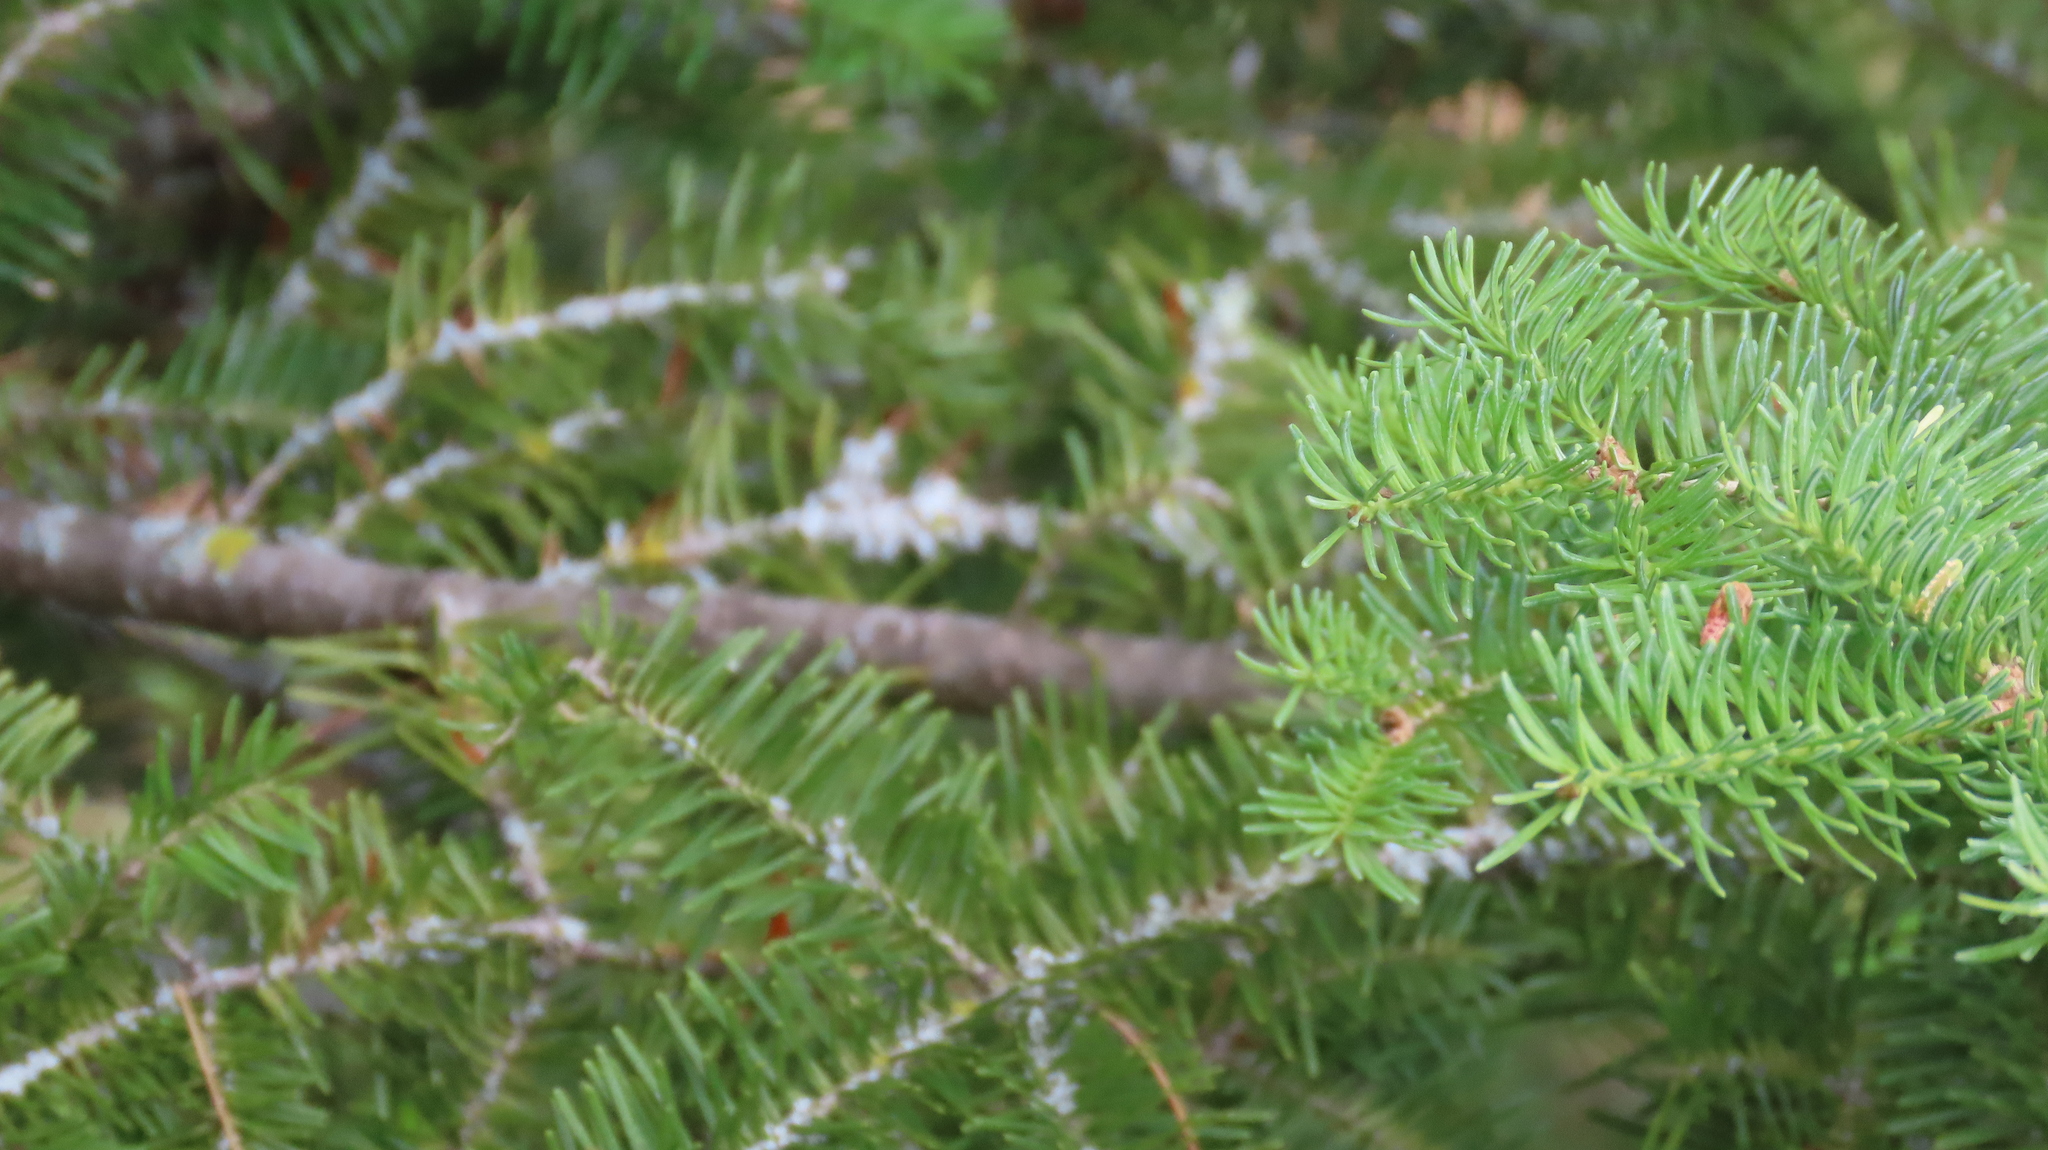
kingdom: Plantae
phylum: Tracheophyta
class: Pinopsida
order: Pinales
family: Pinaceae
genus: Abies
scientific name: Abies balsamea
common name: Balsam fir
